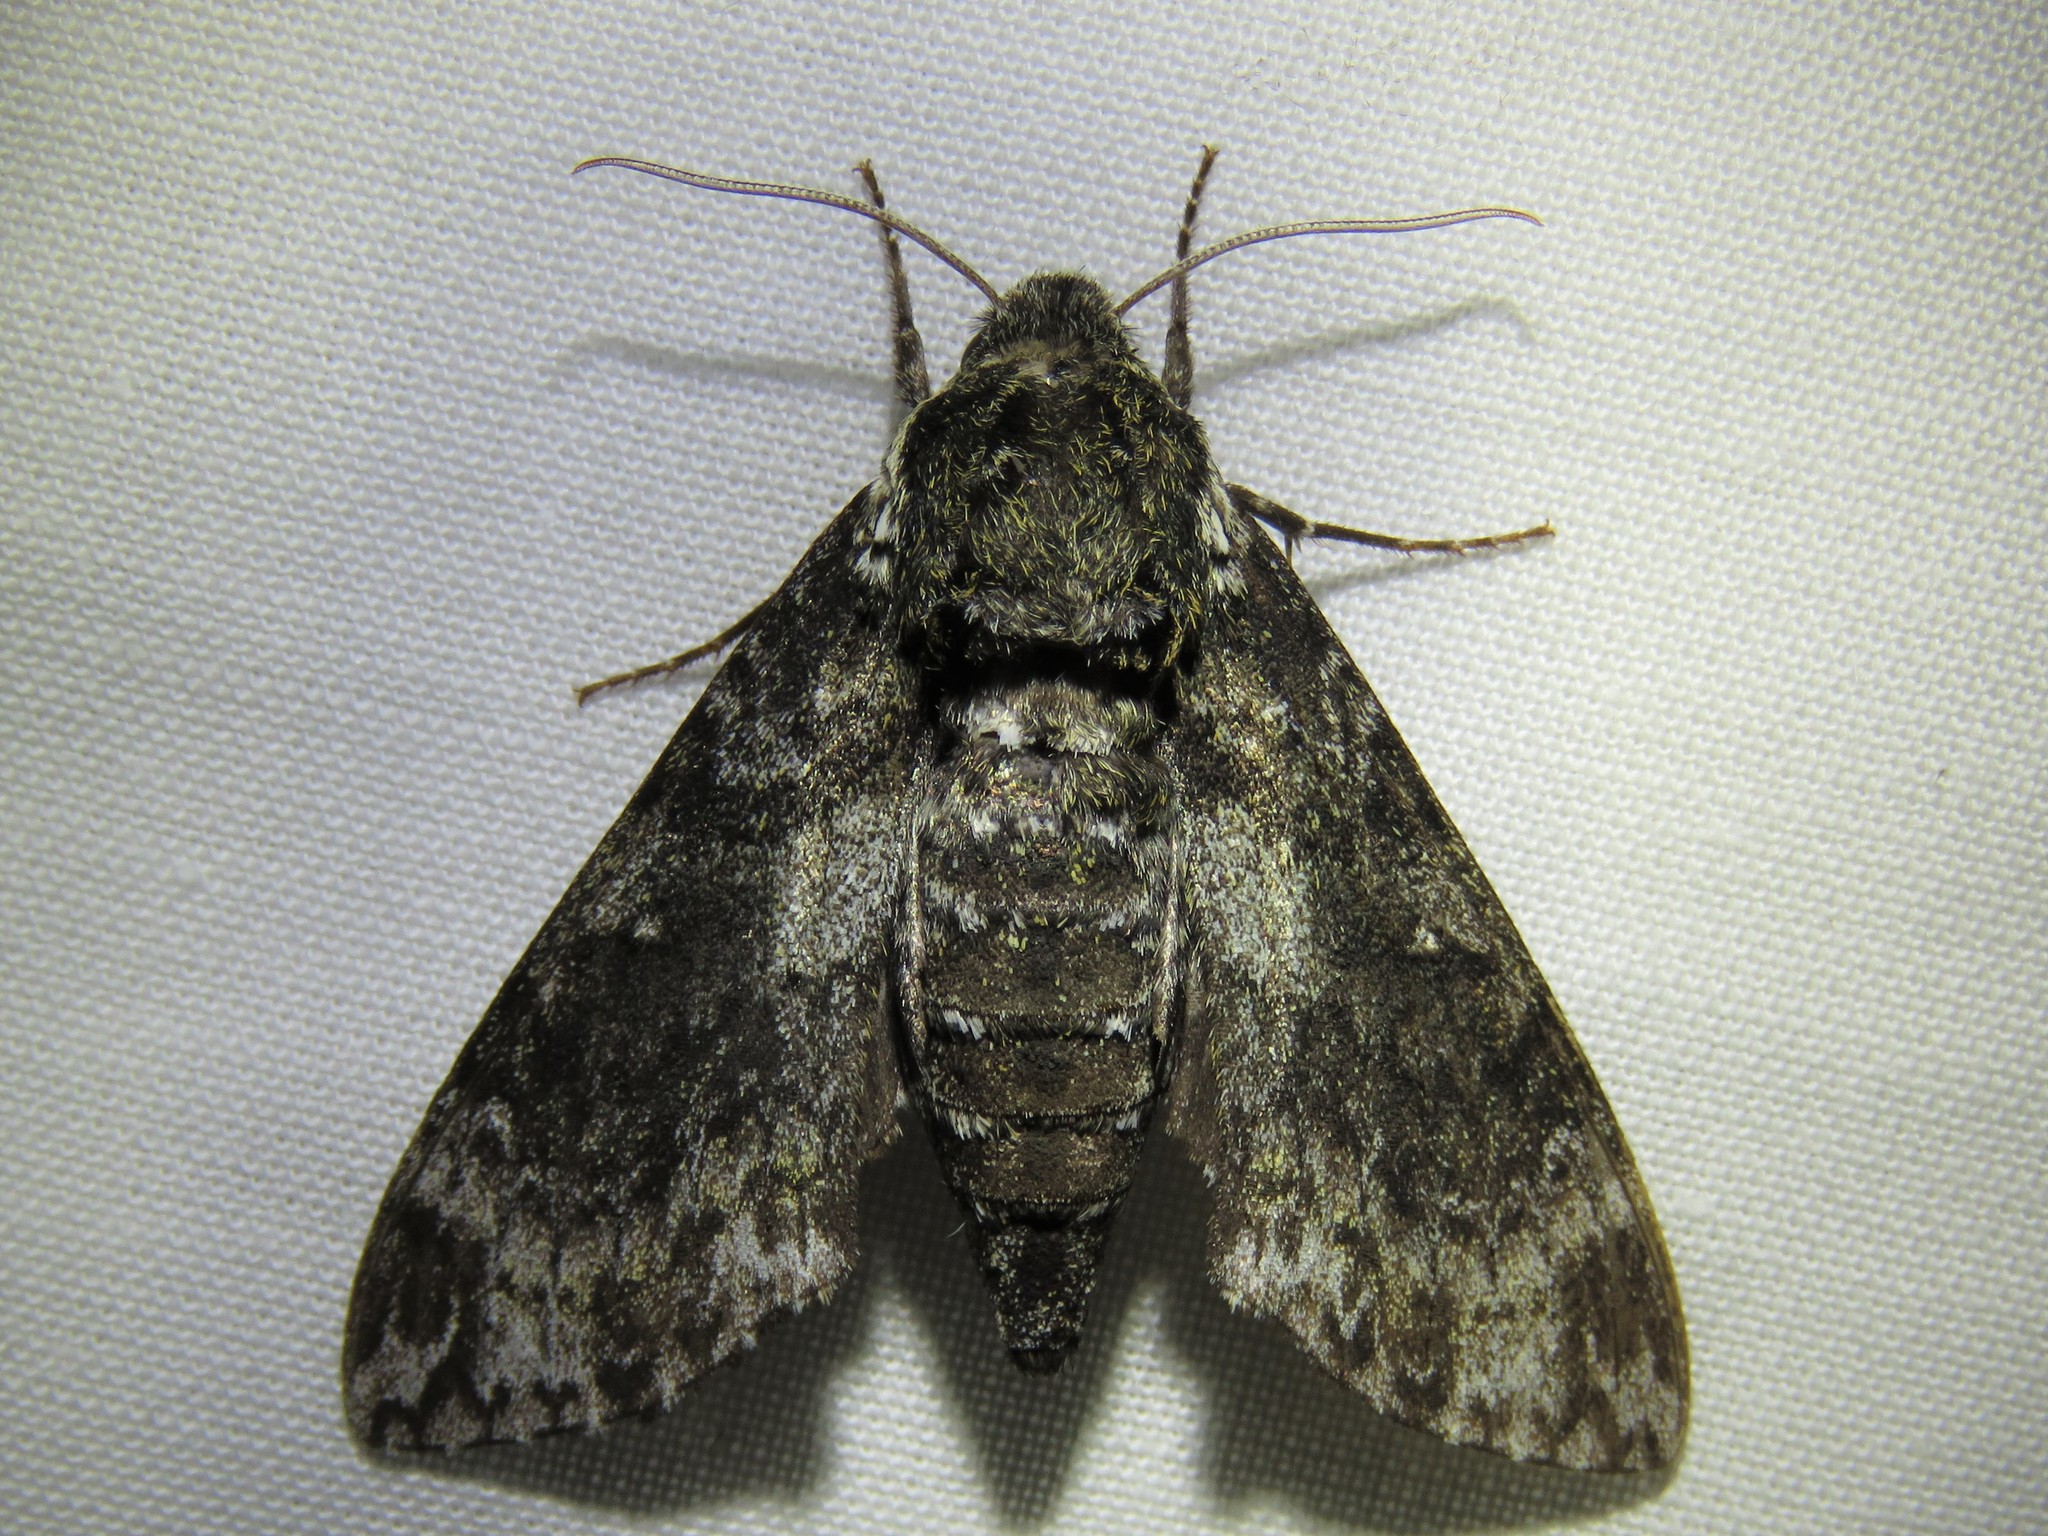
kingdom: Animalia
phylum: Arthropoda
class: Insecta
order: Lepidoptera
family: Sphingidae
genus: Dolba
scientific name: Dolba hyloeus
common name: Pawpaw sphinx
